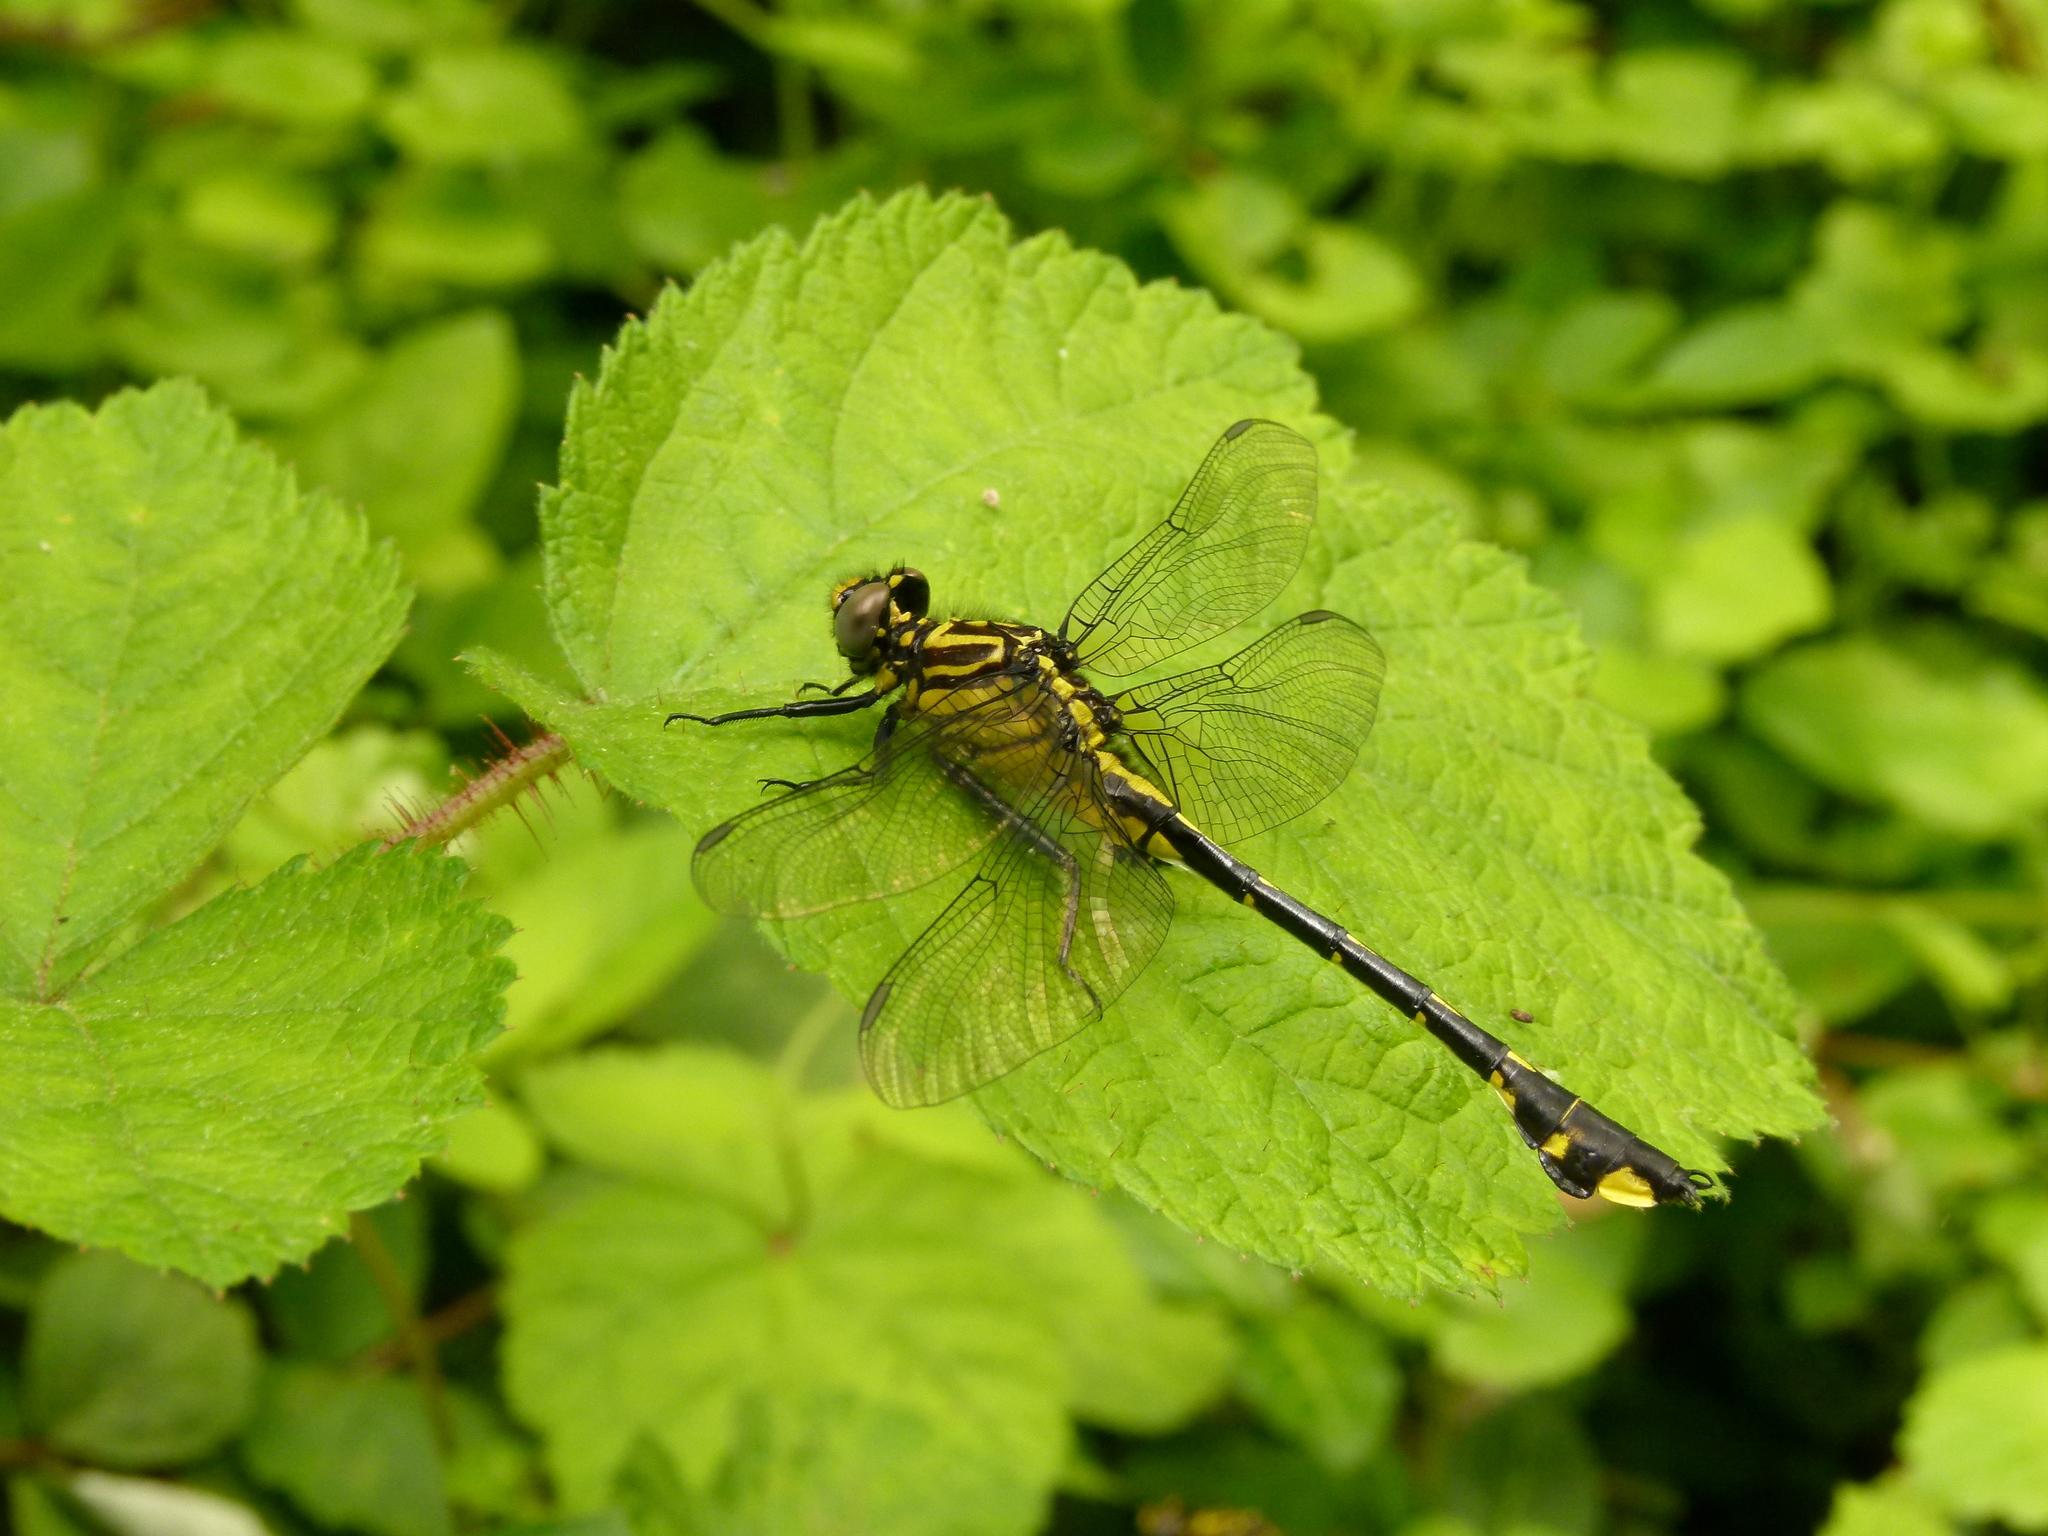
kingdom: Animalia
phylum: Arthropoda
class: Insecta
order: Odonata
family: Gomphidae
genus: Gomphurus
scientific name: Gomphurus vastus
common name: Cobra clubtail
